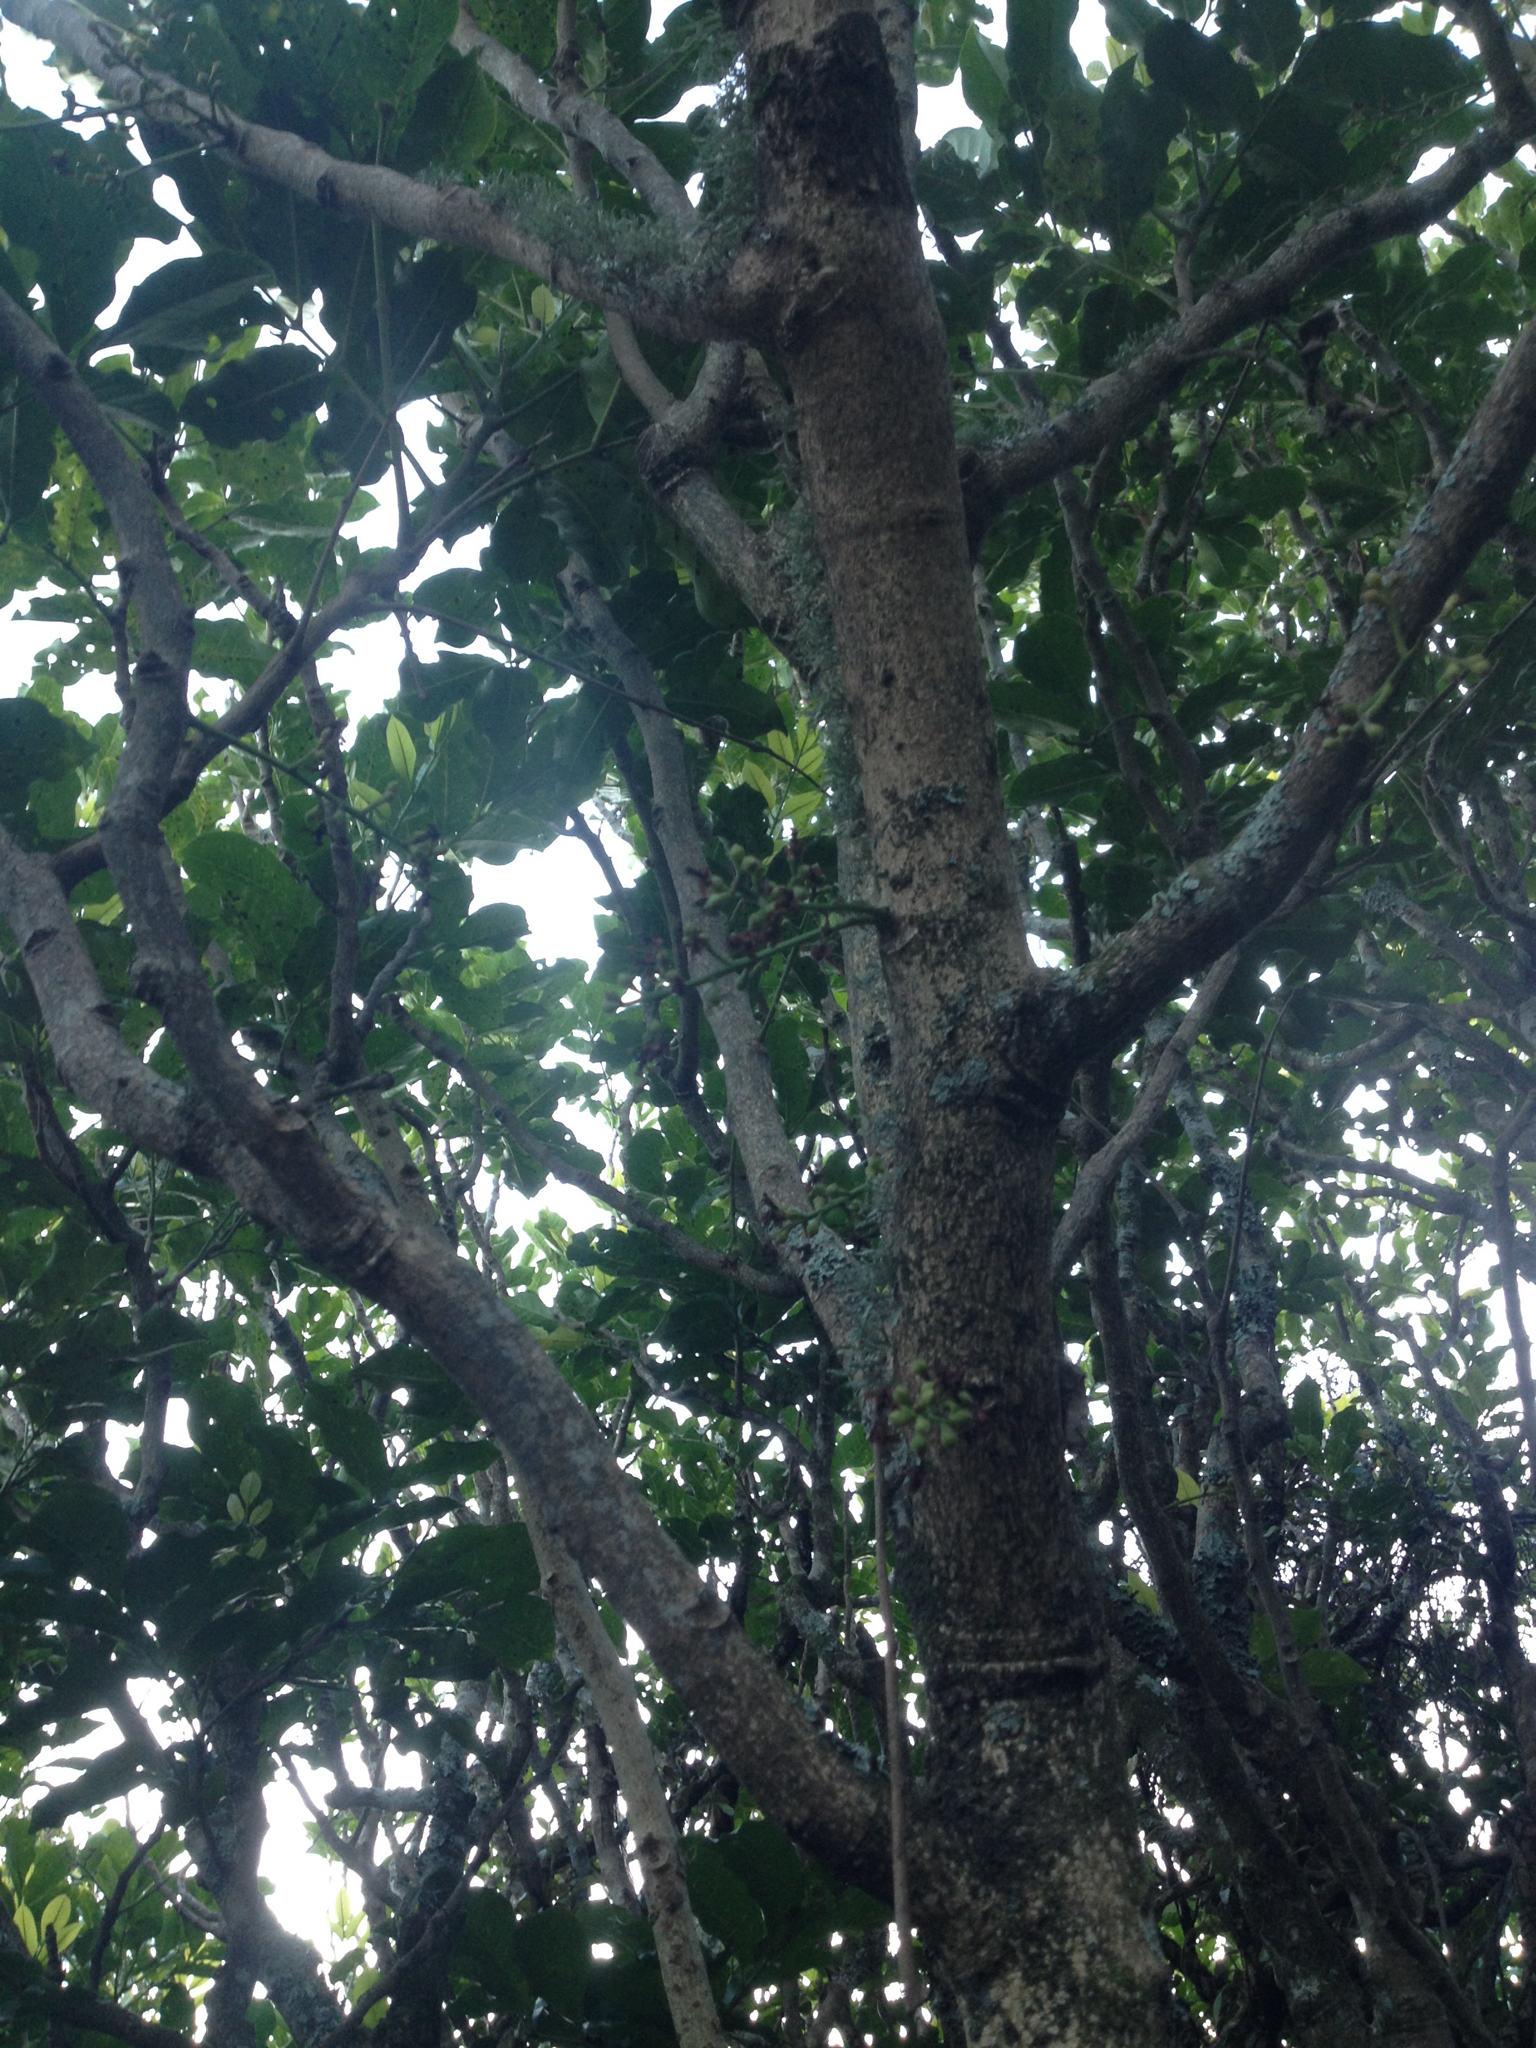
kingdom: Plantae
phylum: Tracheophyta
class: Magnoliopsida
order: Sapindales
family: Meliaceae
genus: Didymocheton
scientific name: Didymocheton spectabilis
